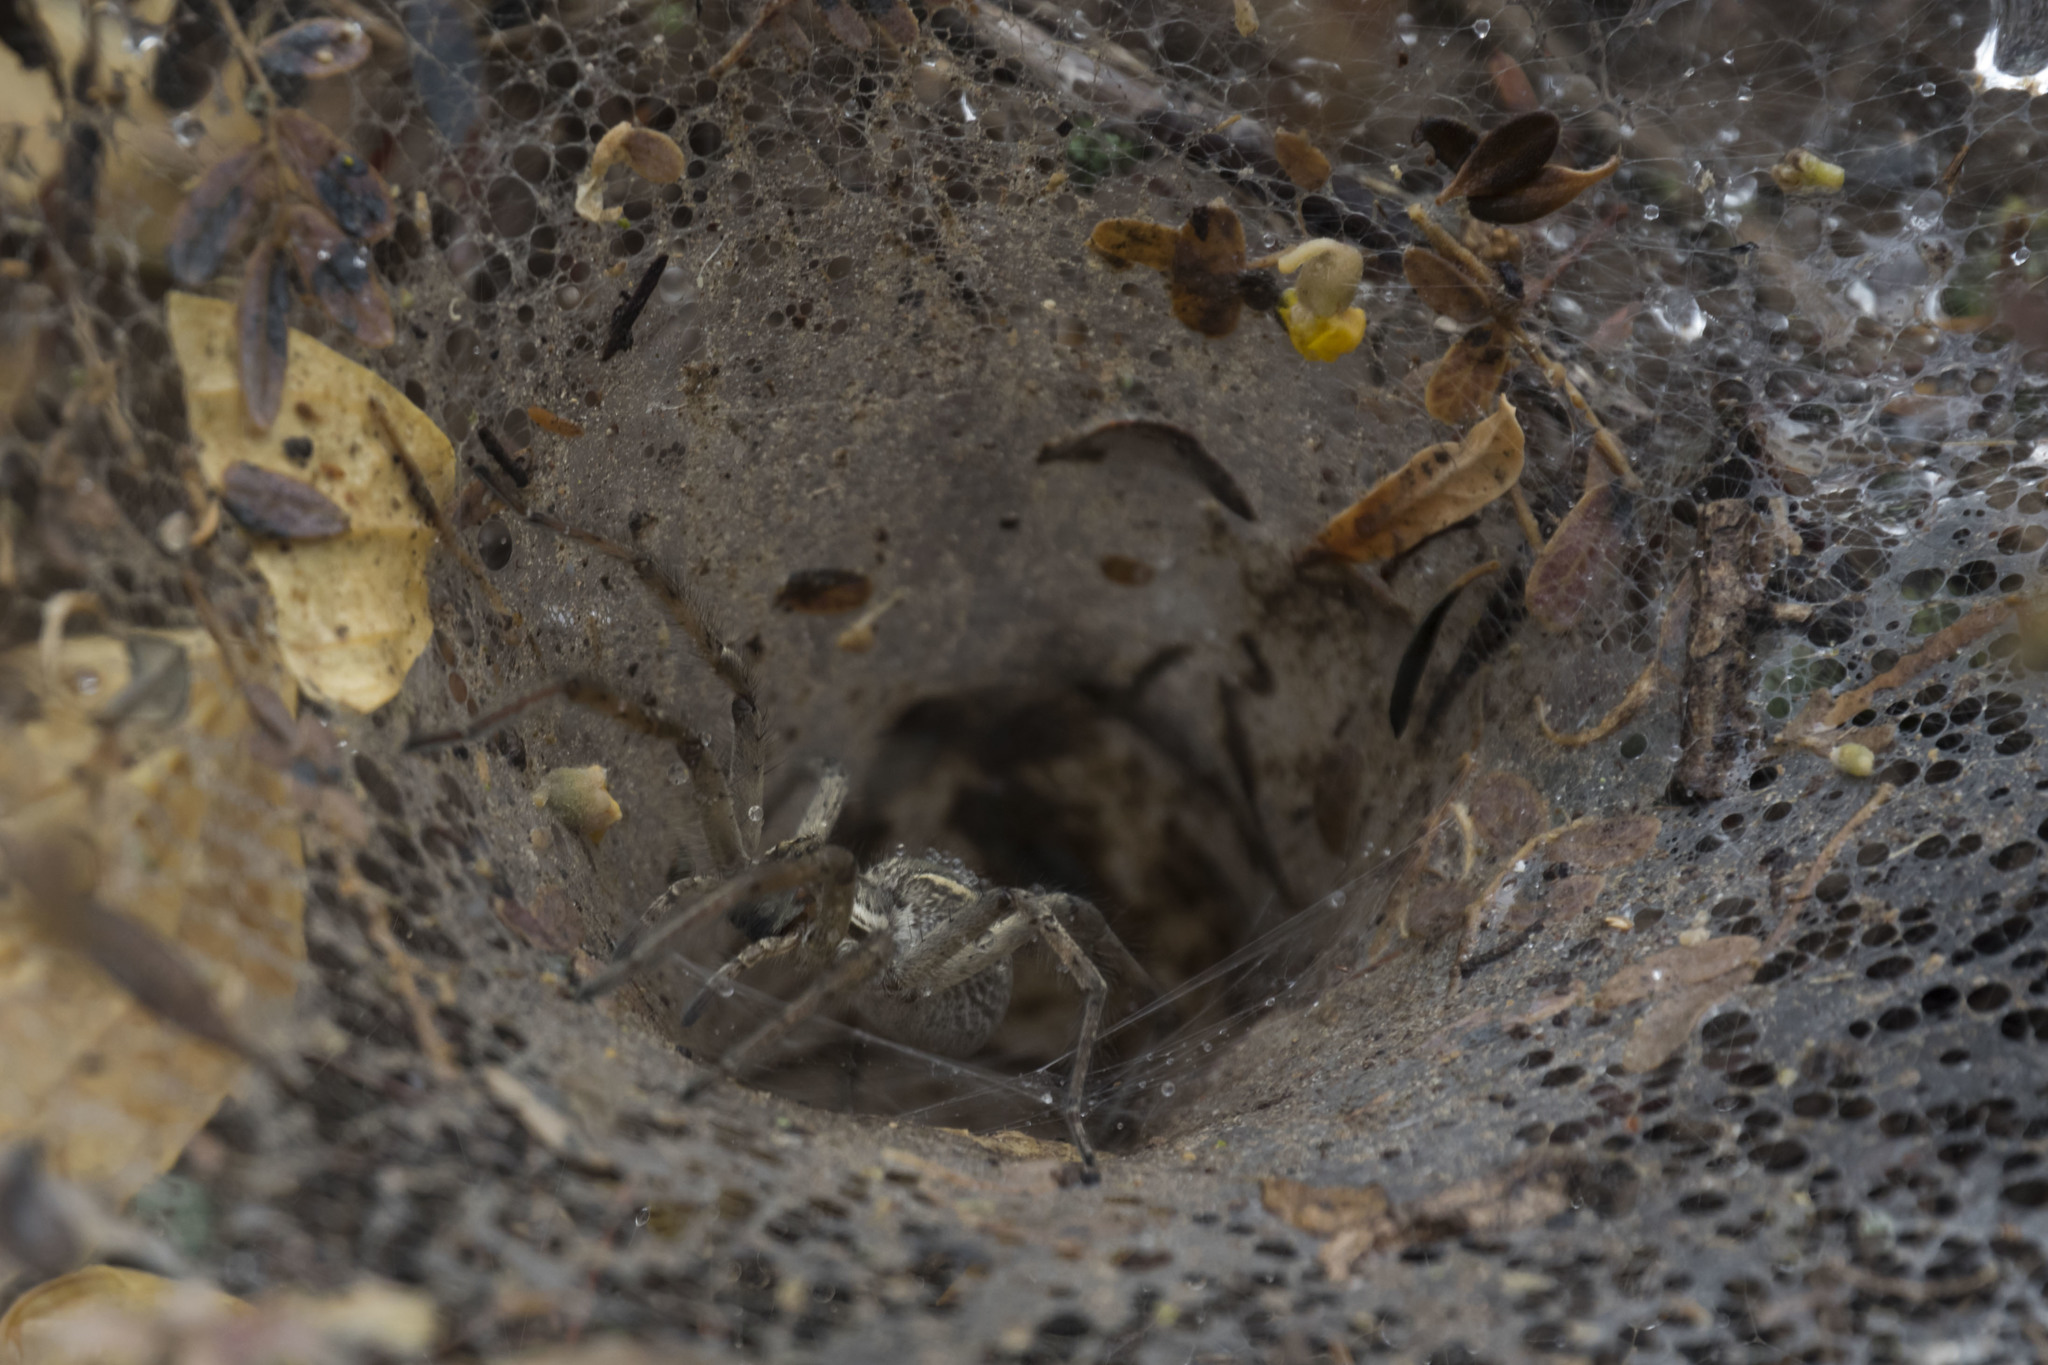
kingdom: Animalia
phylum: Arthropoda
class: Arachnida
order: Araneae
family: Lycosidae
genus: Aglaoctenus
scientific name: Aglaoctenus lagotis
